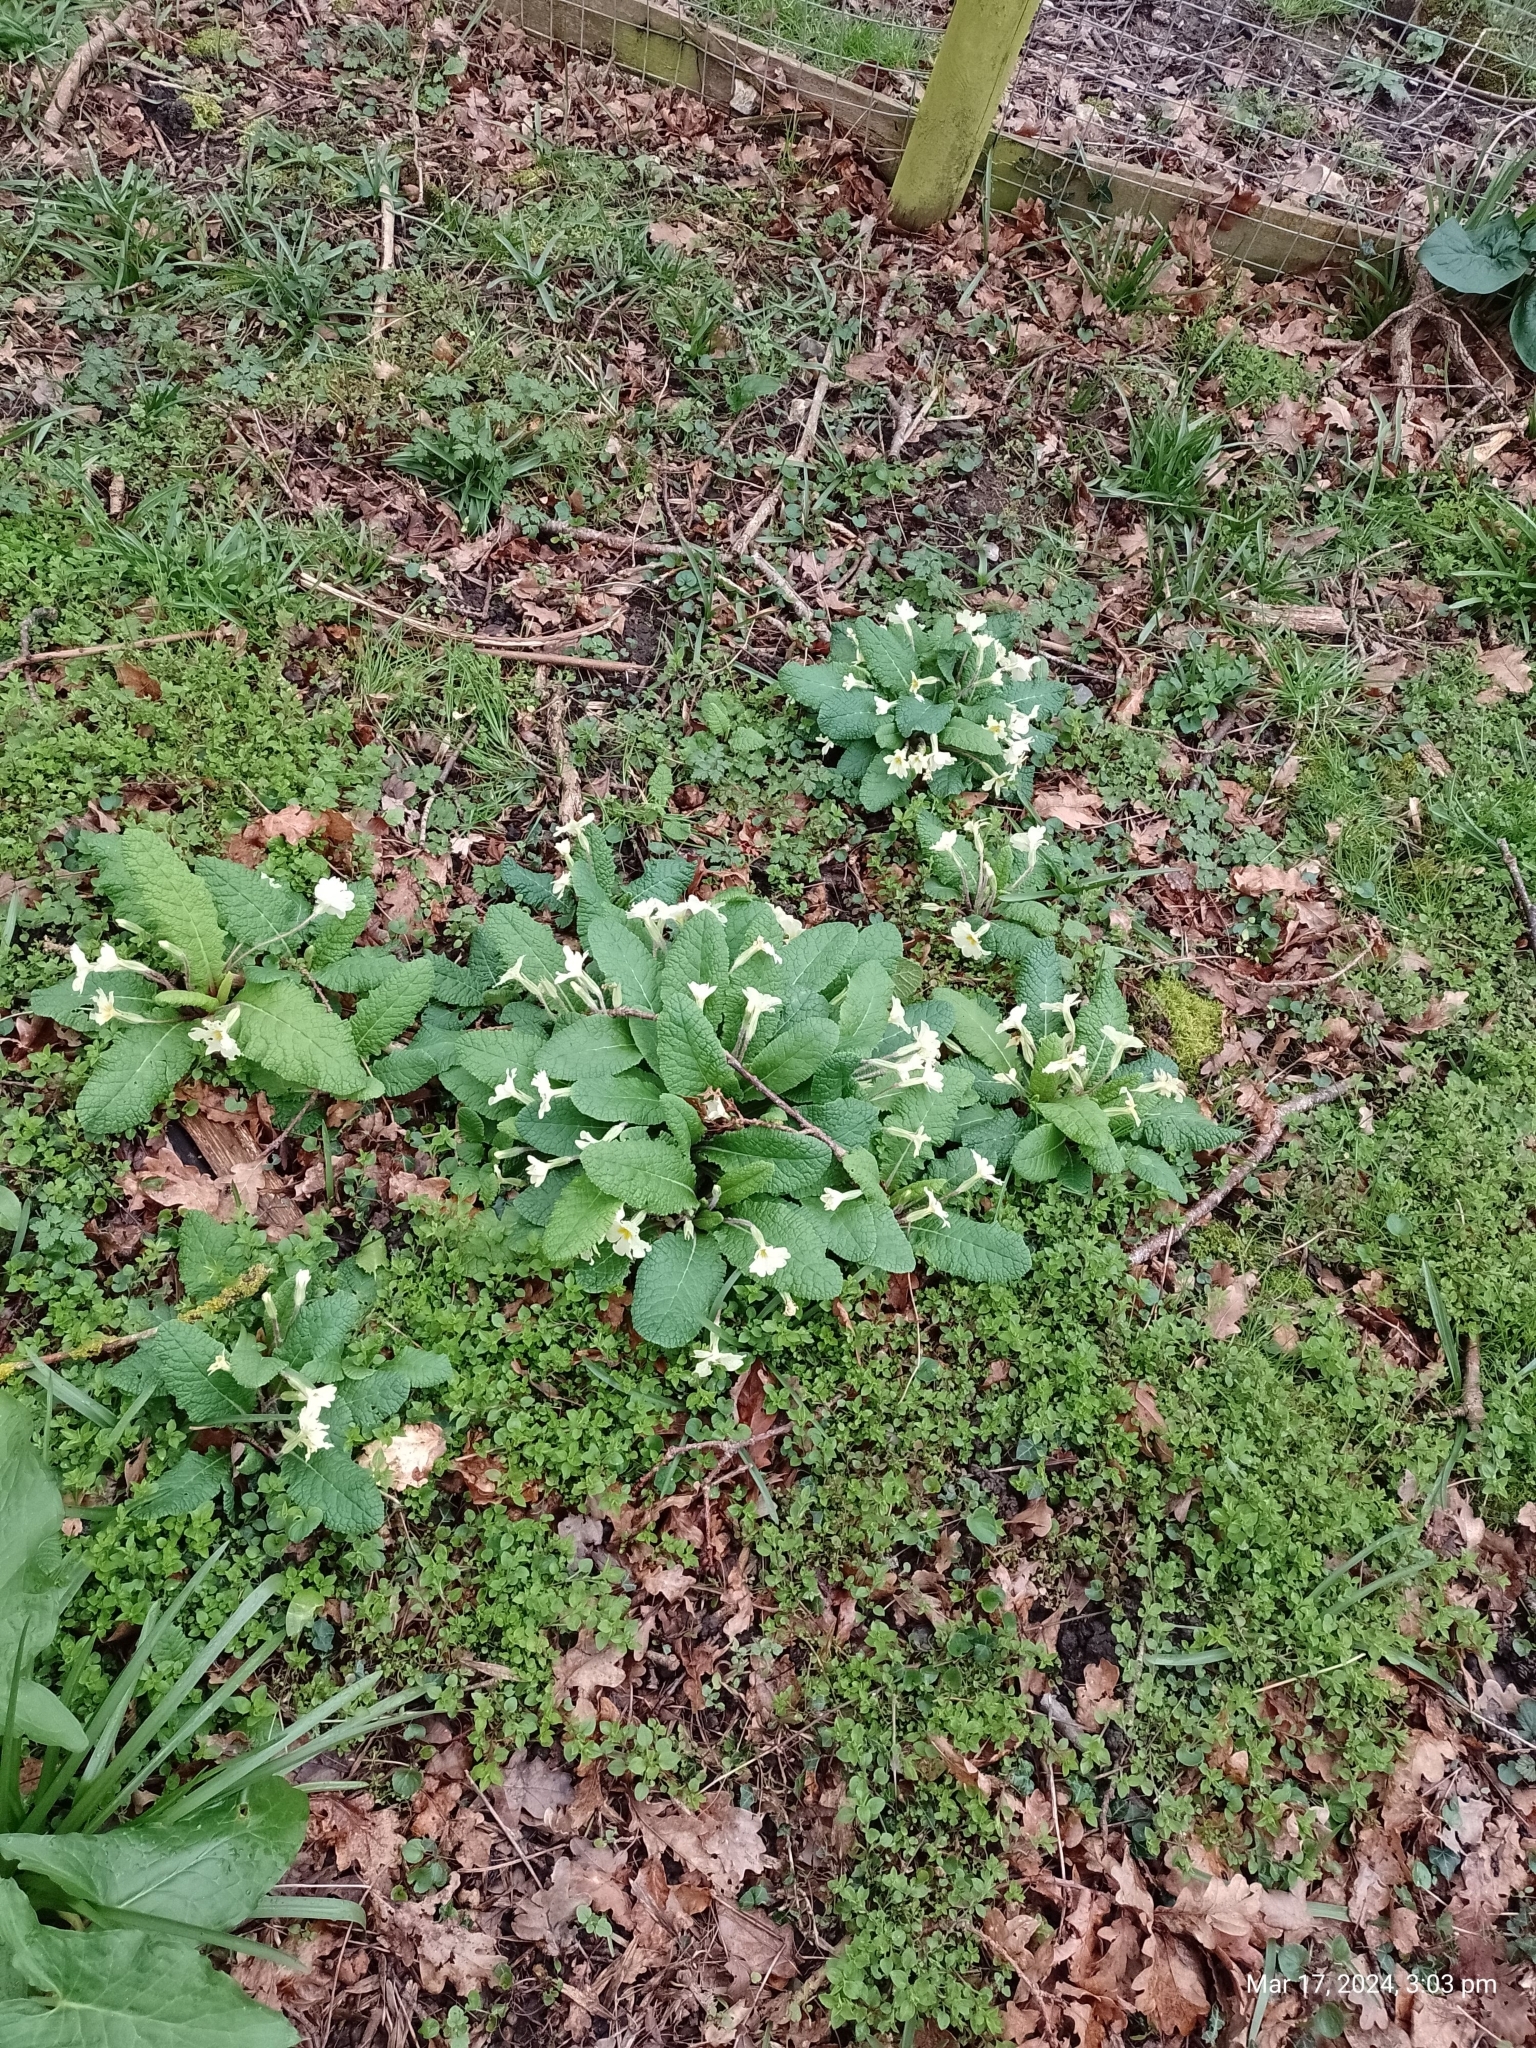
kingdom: Plantae
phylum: Tracheophyta
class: Magnoliopsida
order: Ericales
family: Primulaceae
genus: Primula
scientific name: Primula vulgaris
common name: Primrose
